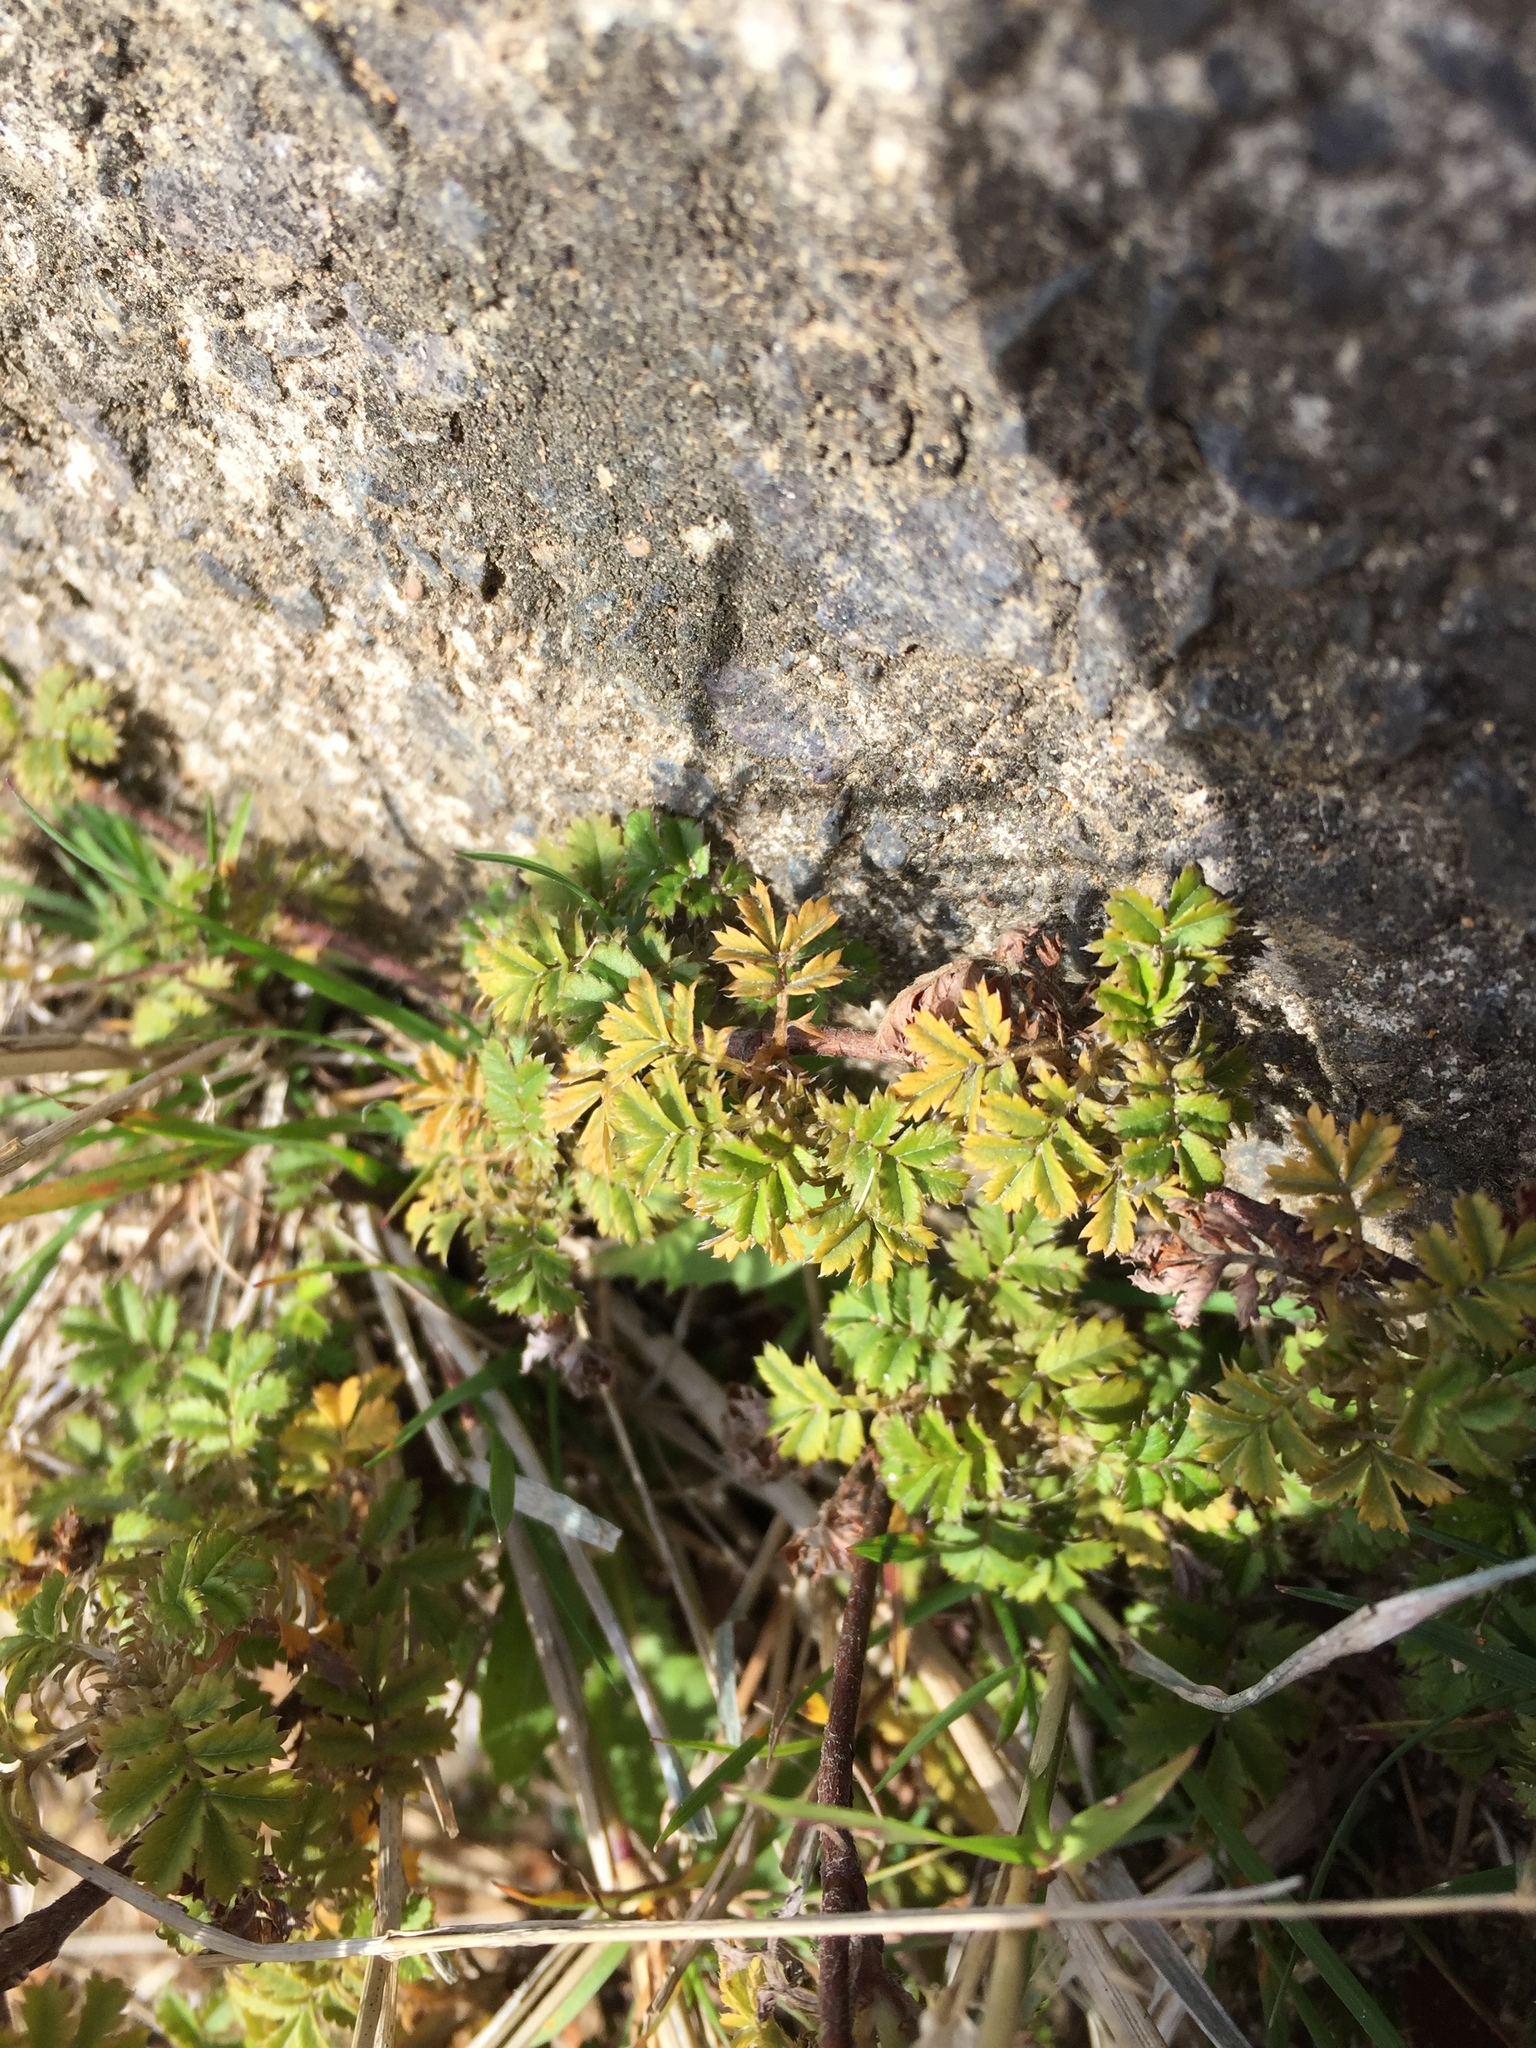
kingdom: Plantae
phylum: Tracheophyta
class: Magnoliopsida
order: Rosales
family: Rosaceae
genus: Acaena
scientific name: Acaena anserinifolia
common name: Bronze pirri-pirri-bur
